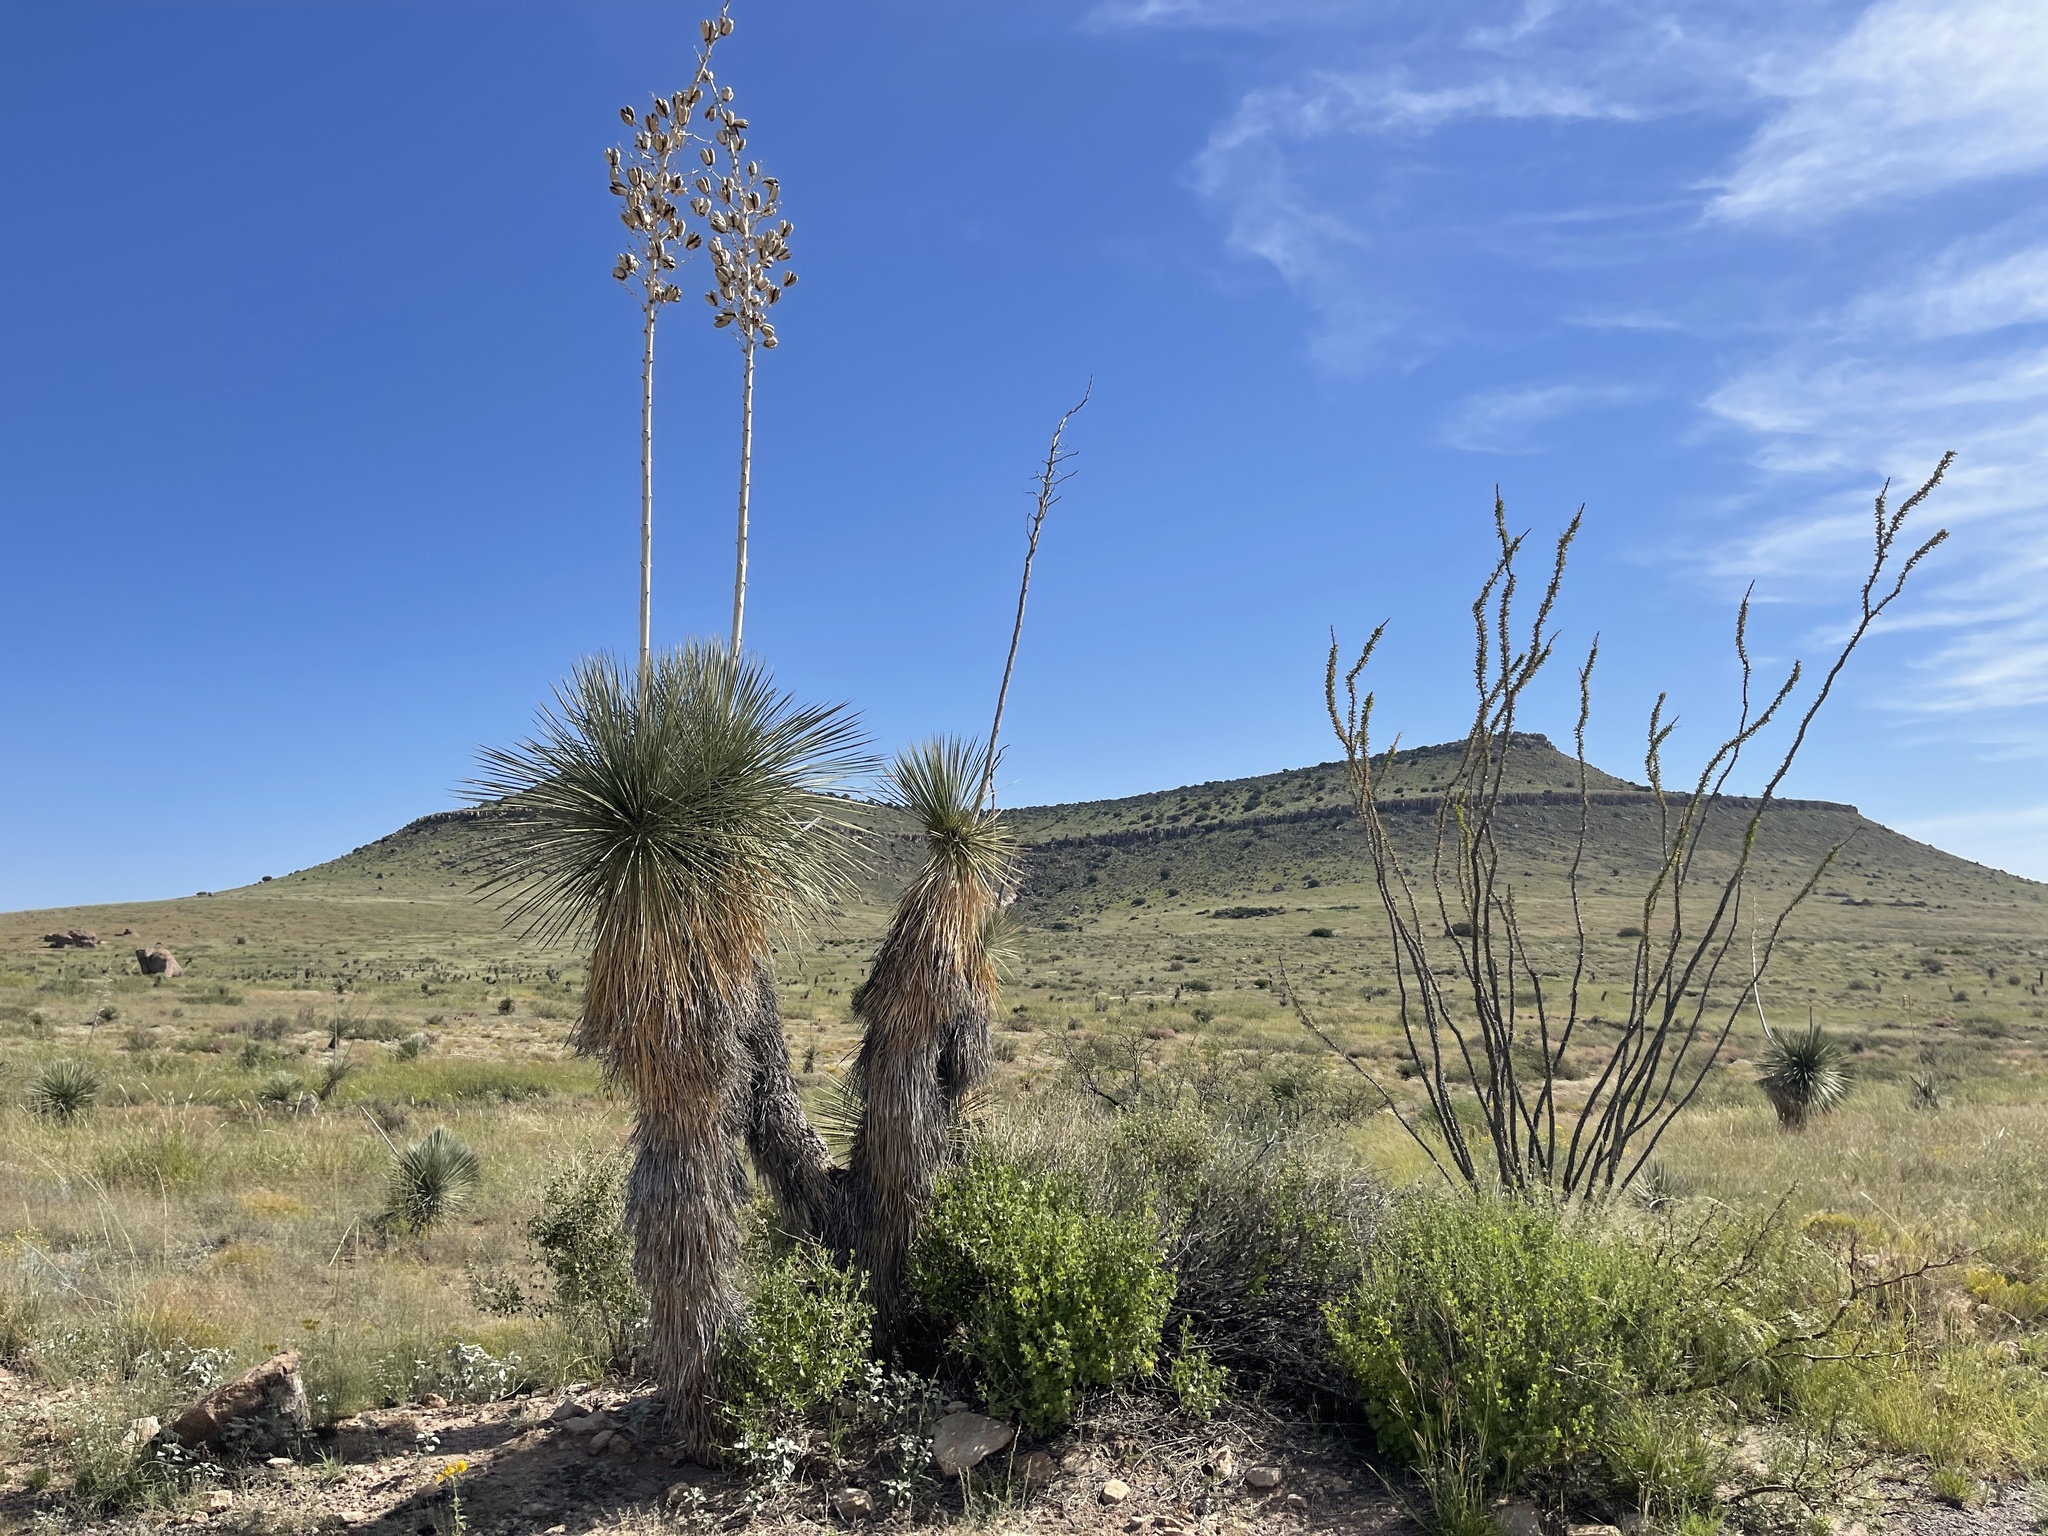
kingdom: Plantae
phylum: Tracheophyta
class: Liliopsida
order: Asparagales
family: Asparagaceae
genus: Yucca
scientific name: Yucca elata
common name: Palmella
